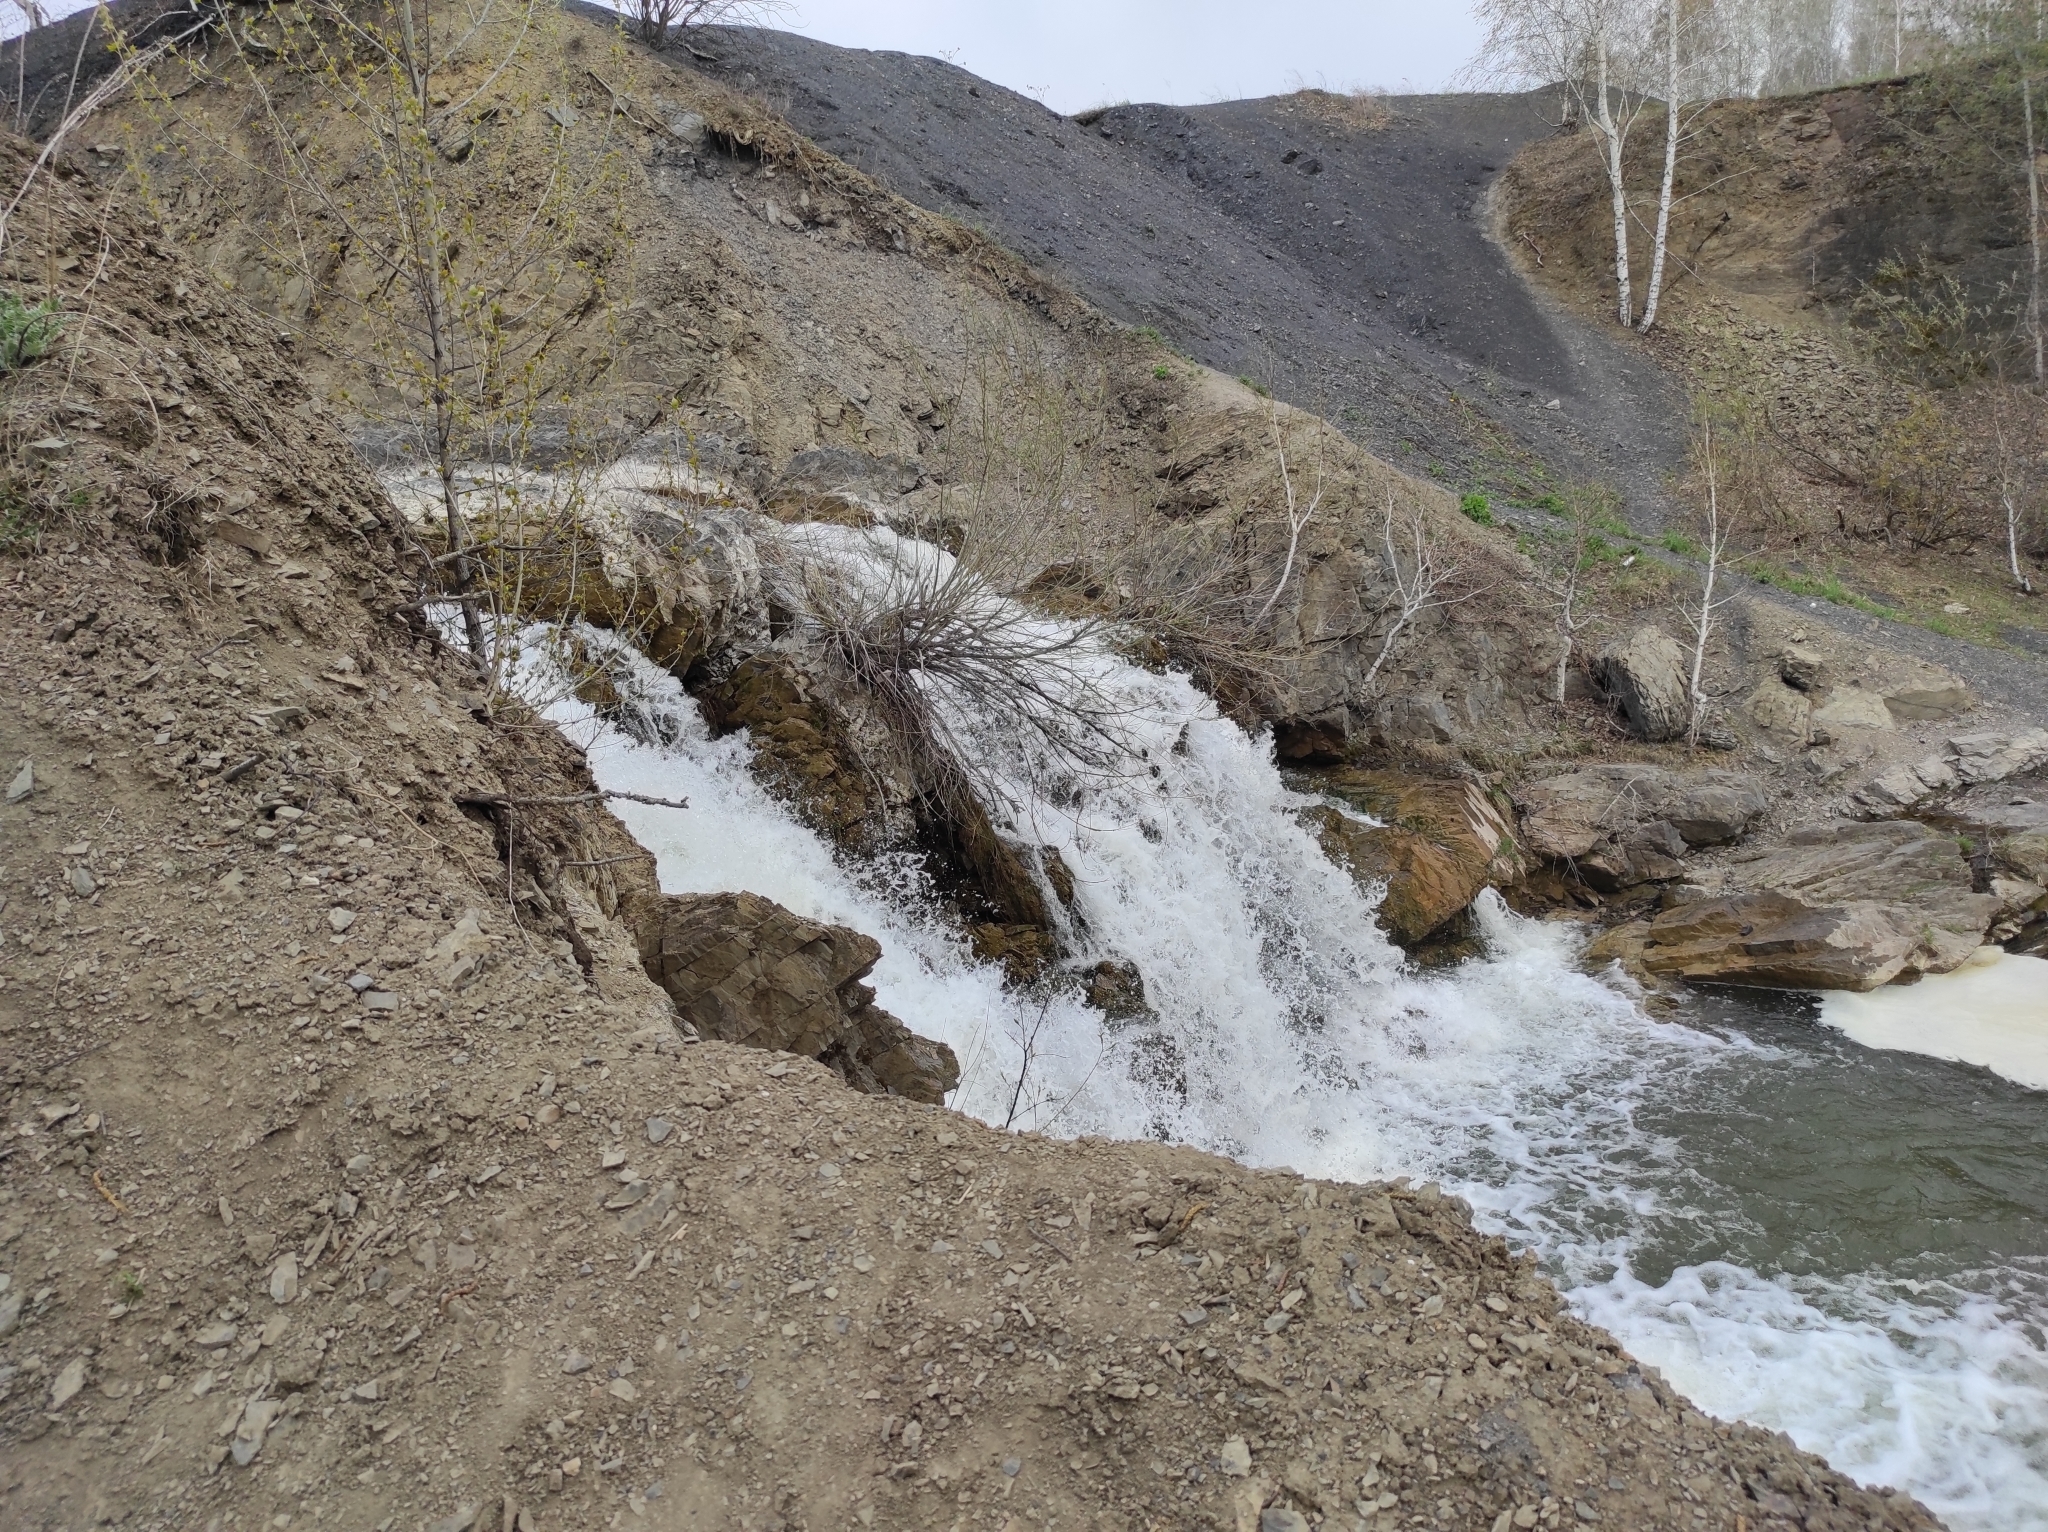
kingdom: Plantae
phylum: Tracheophyta
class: Magnoliopsida
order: Brassicales
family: Brassicaceae
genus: Alyssum
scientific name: Alyssum lenense
